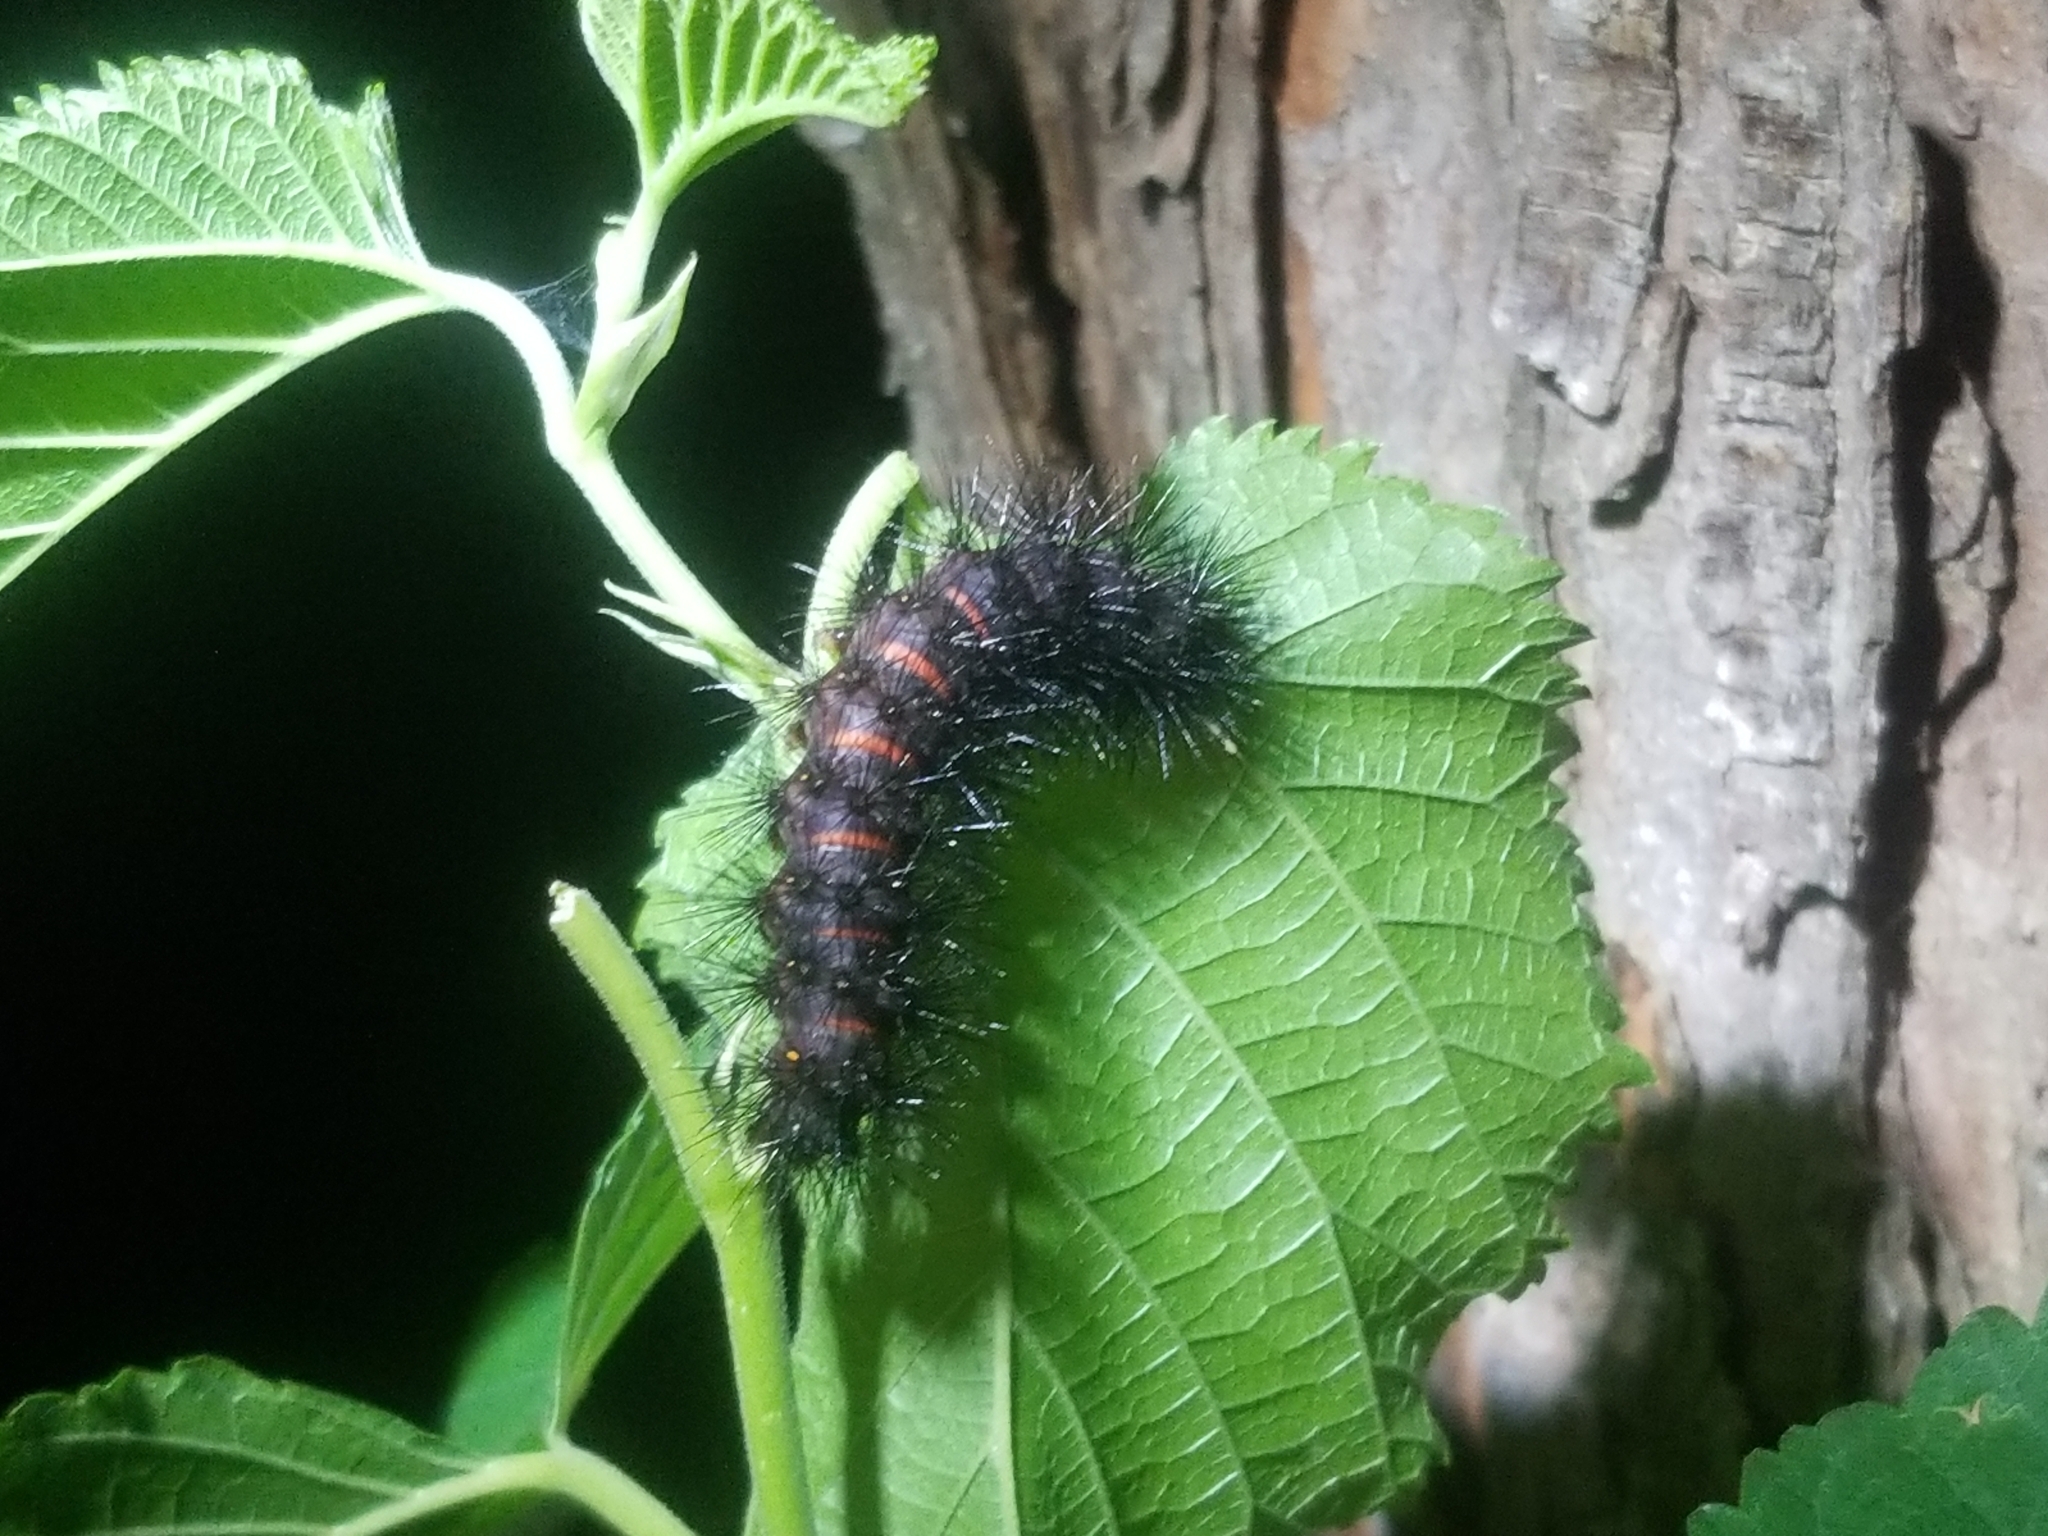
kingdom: Animalia
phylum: Arthropoda
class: Insecta
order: Lepidoptera
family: Erebidae
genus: Hypercompe
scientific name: Hypercompe scribonia
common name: Giant leopard moth
